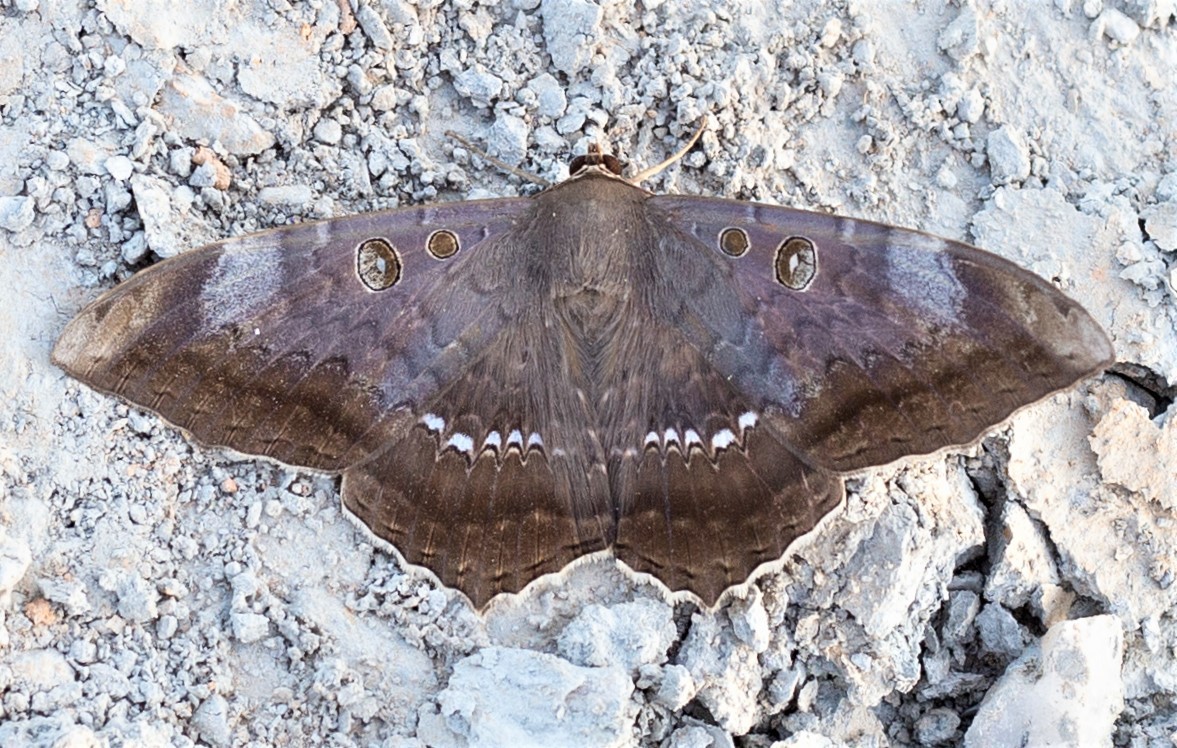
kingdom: Animalia
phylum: Arthropoda
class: Insecta
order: Lepidoptera
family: Erebidae
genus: Cyclopis
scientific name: Cyclopis caecutiens
